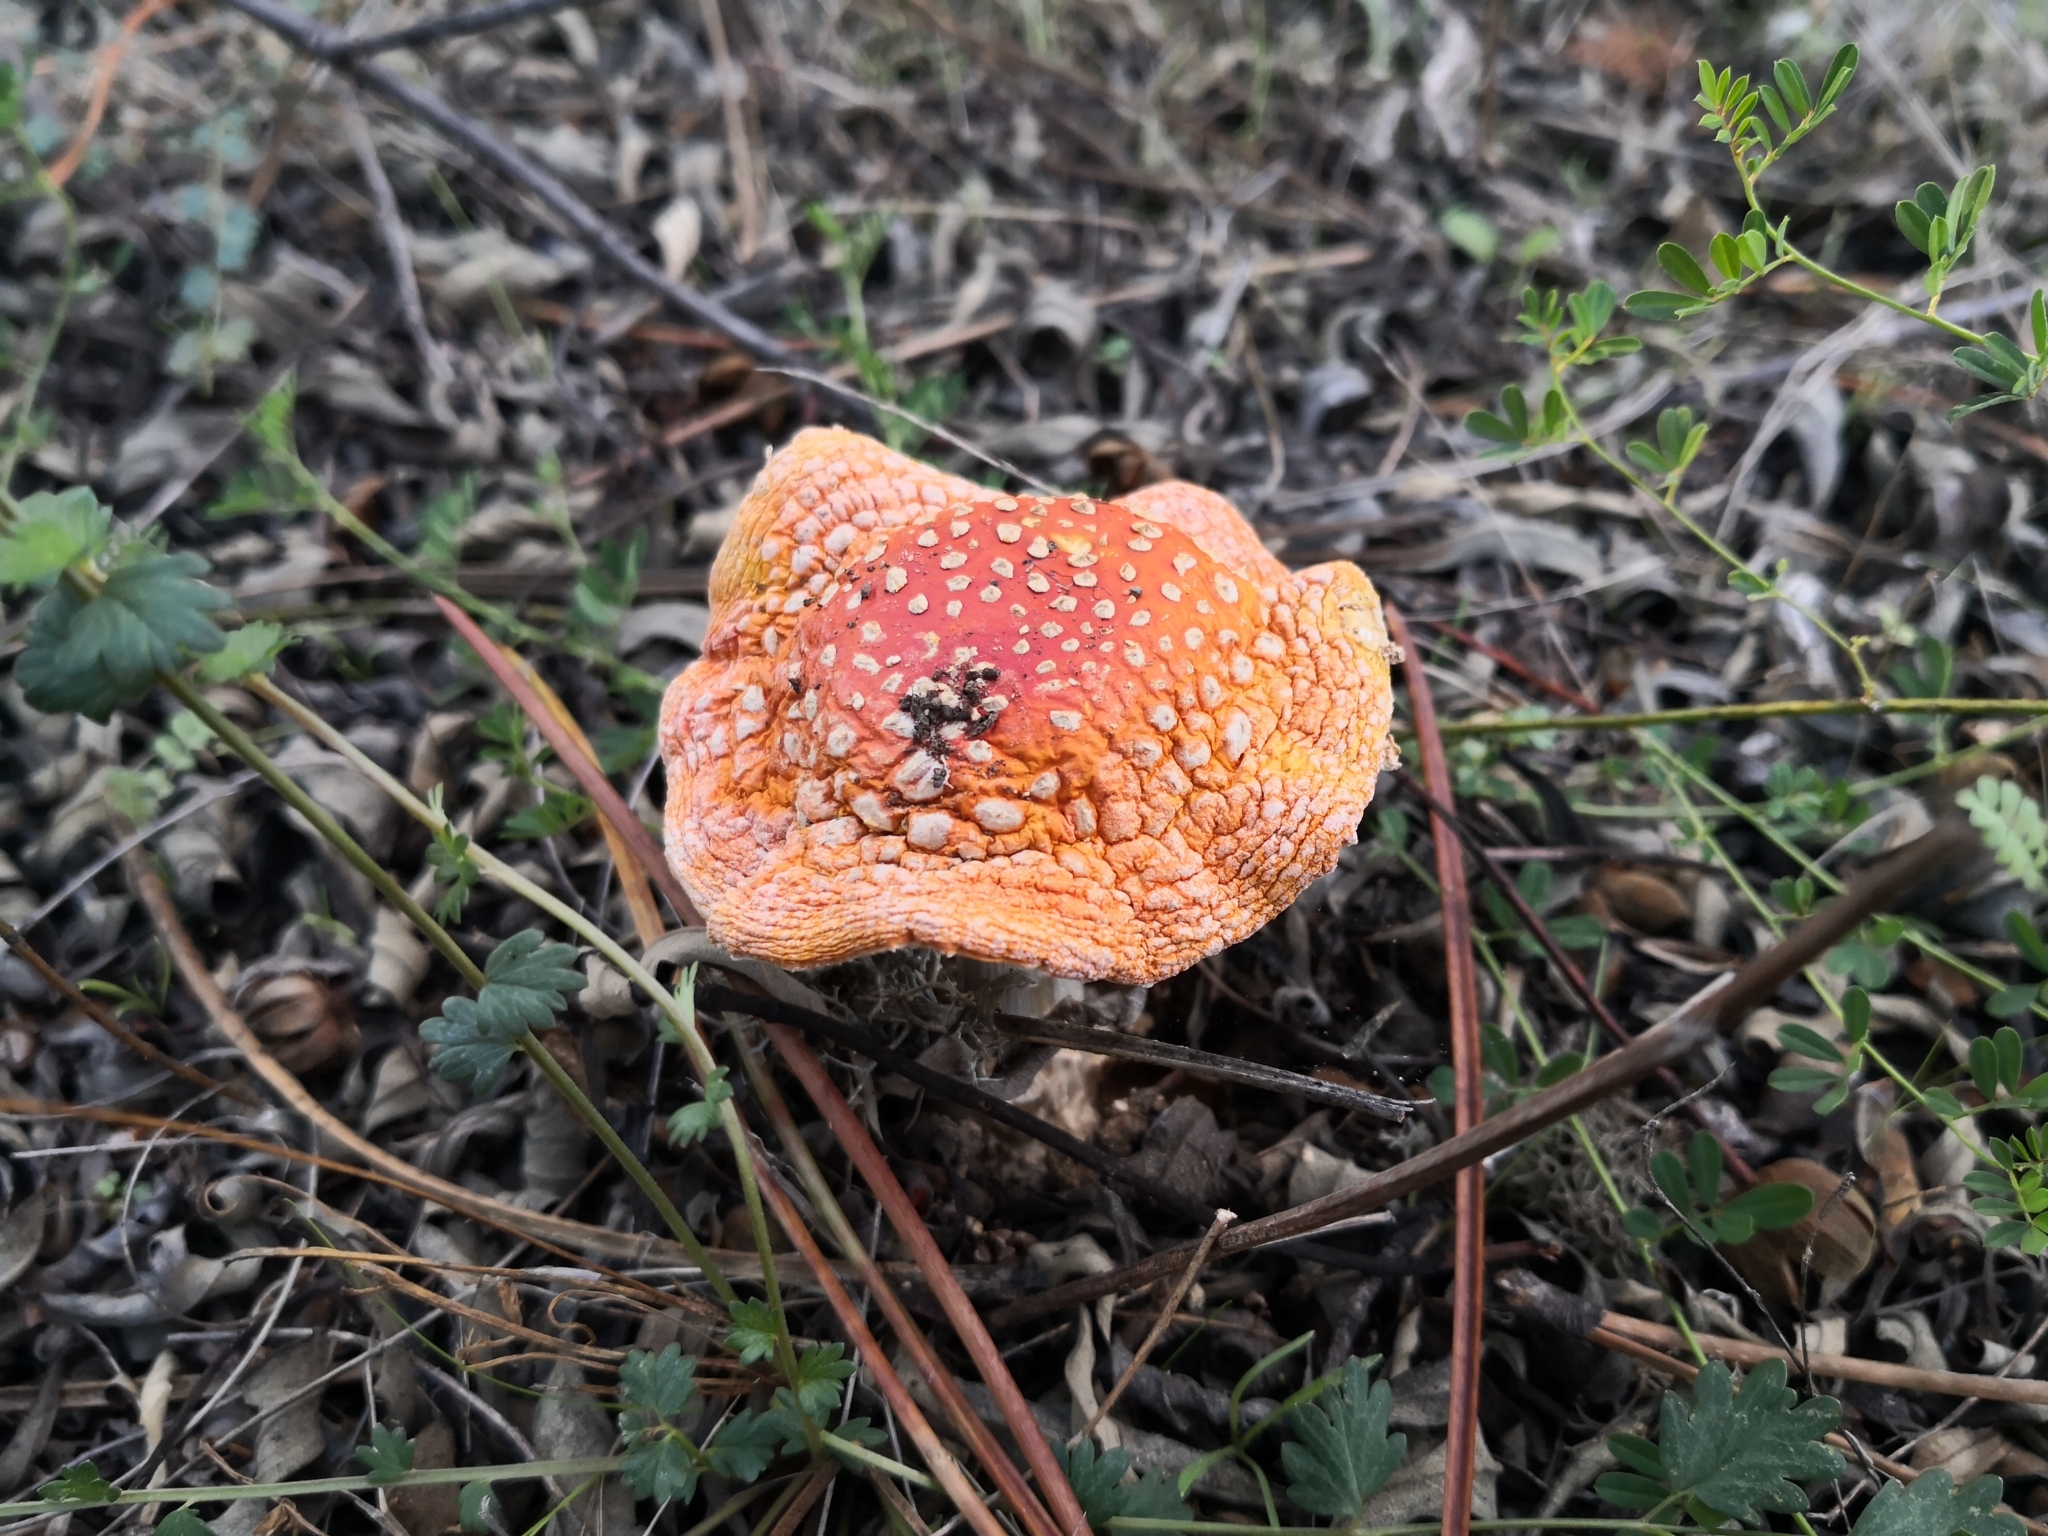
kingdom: Fungi
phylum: Basidiomycota
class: Agaricomycetes
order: Agaricales
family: Amanitaceae
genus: Amanita
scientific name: Amanita muscaria
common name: Fly agaric
